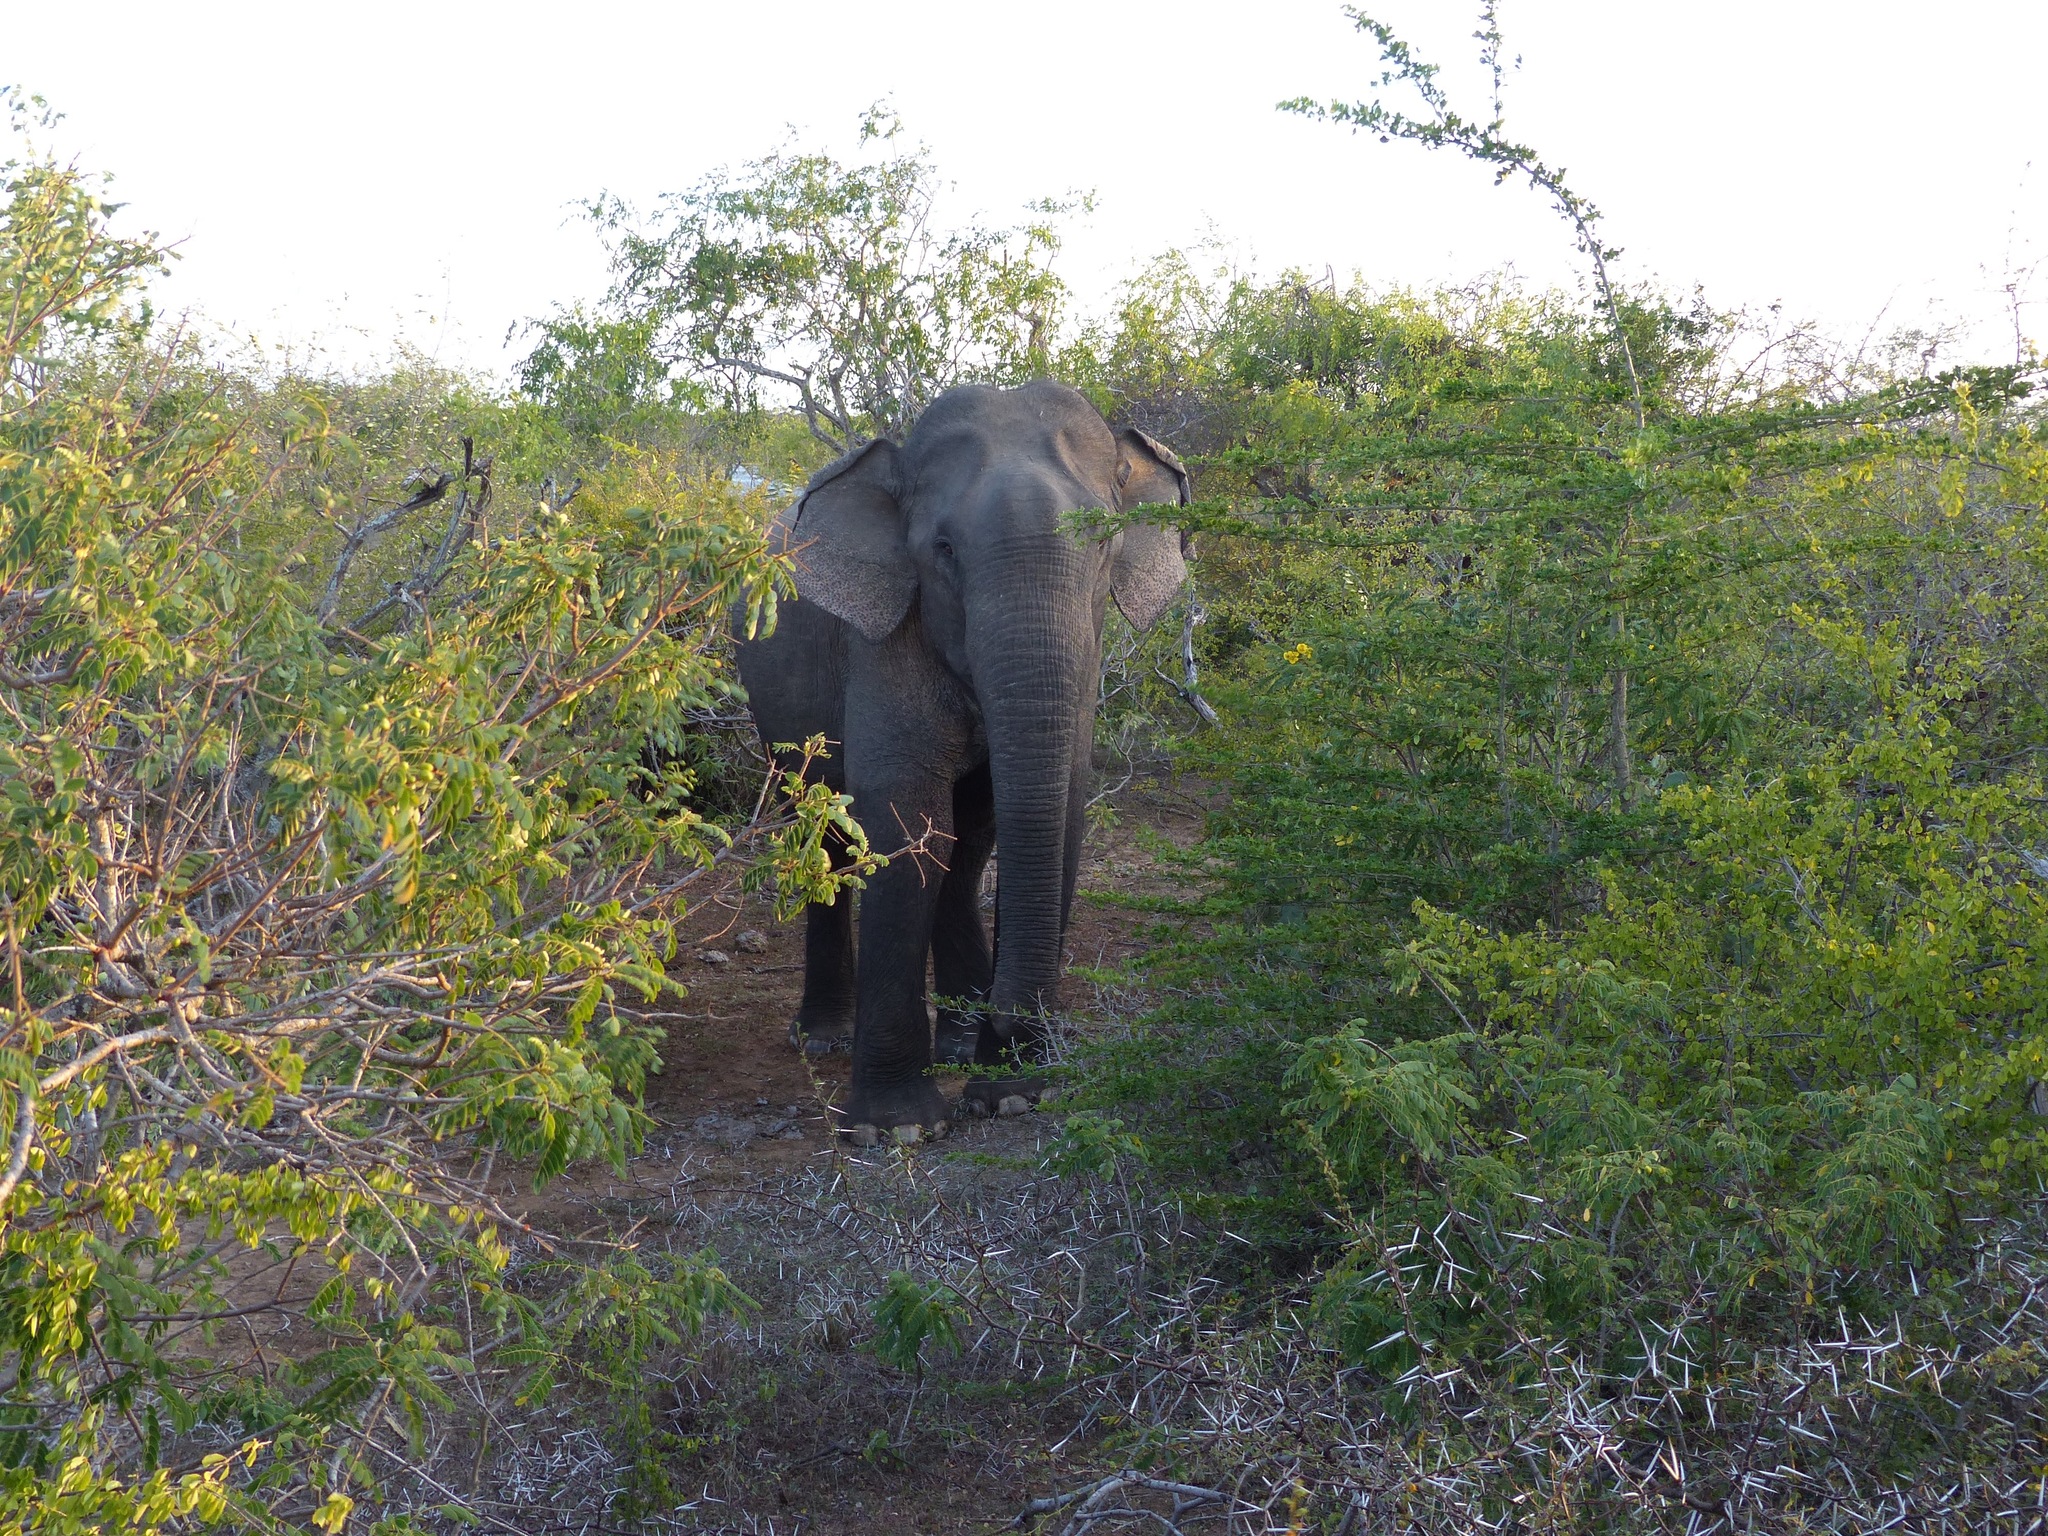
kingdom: Animalia
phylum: Chordata
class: Mammalia
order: Proboscidea
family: Elephantidae
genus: Elephas
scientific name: Elephas maximus
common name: Asian elephant
